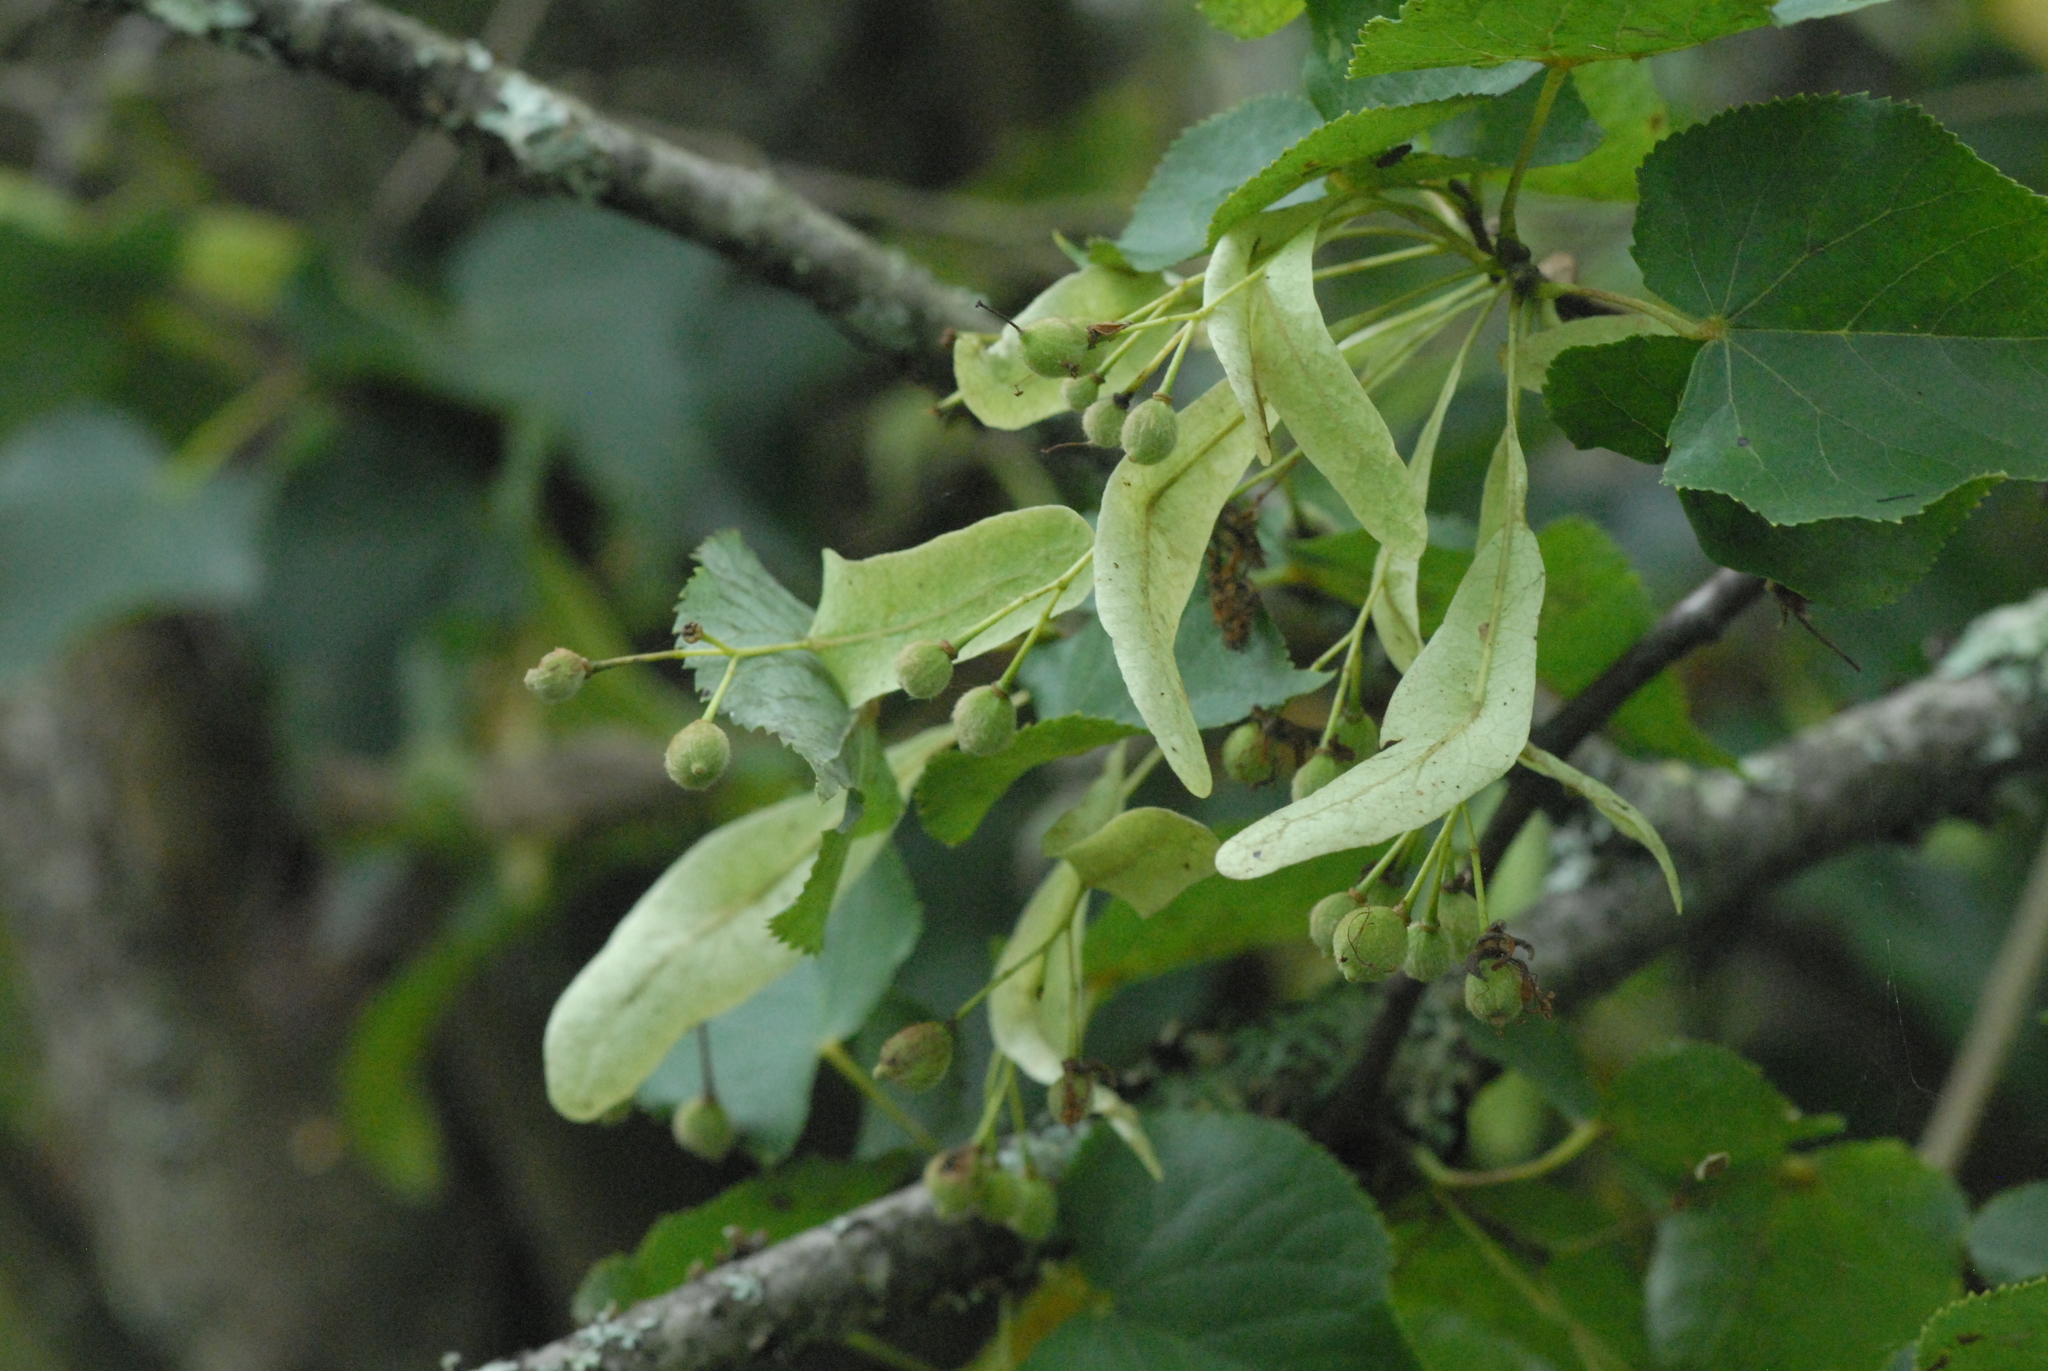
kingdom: Plantae
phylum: Tracheophyta
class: Magnoliopsida
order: Malvales
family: Malvaceae
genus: Tilia
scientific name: Tilia cordata
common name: Small-leaved lime
